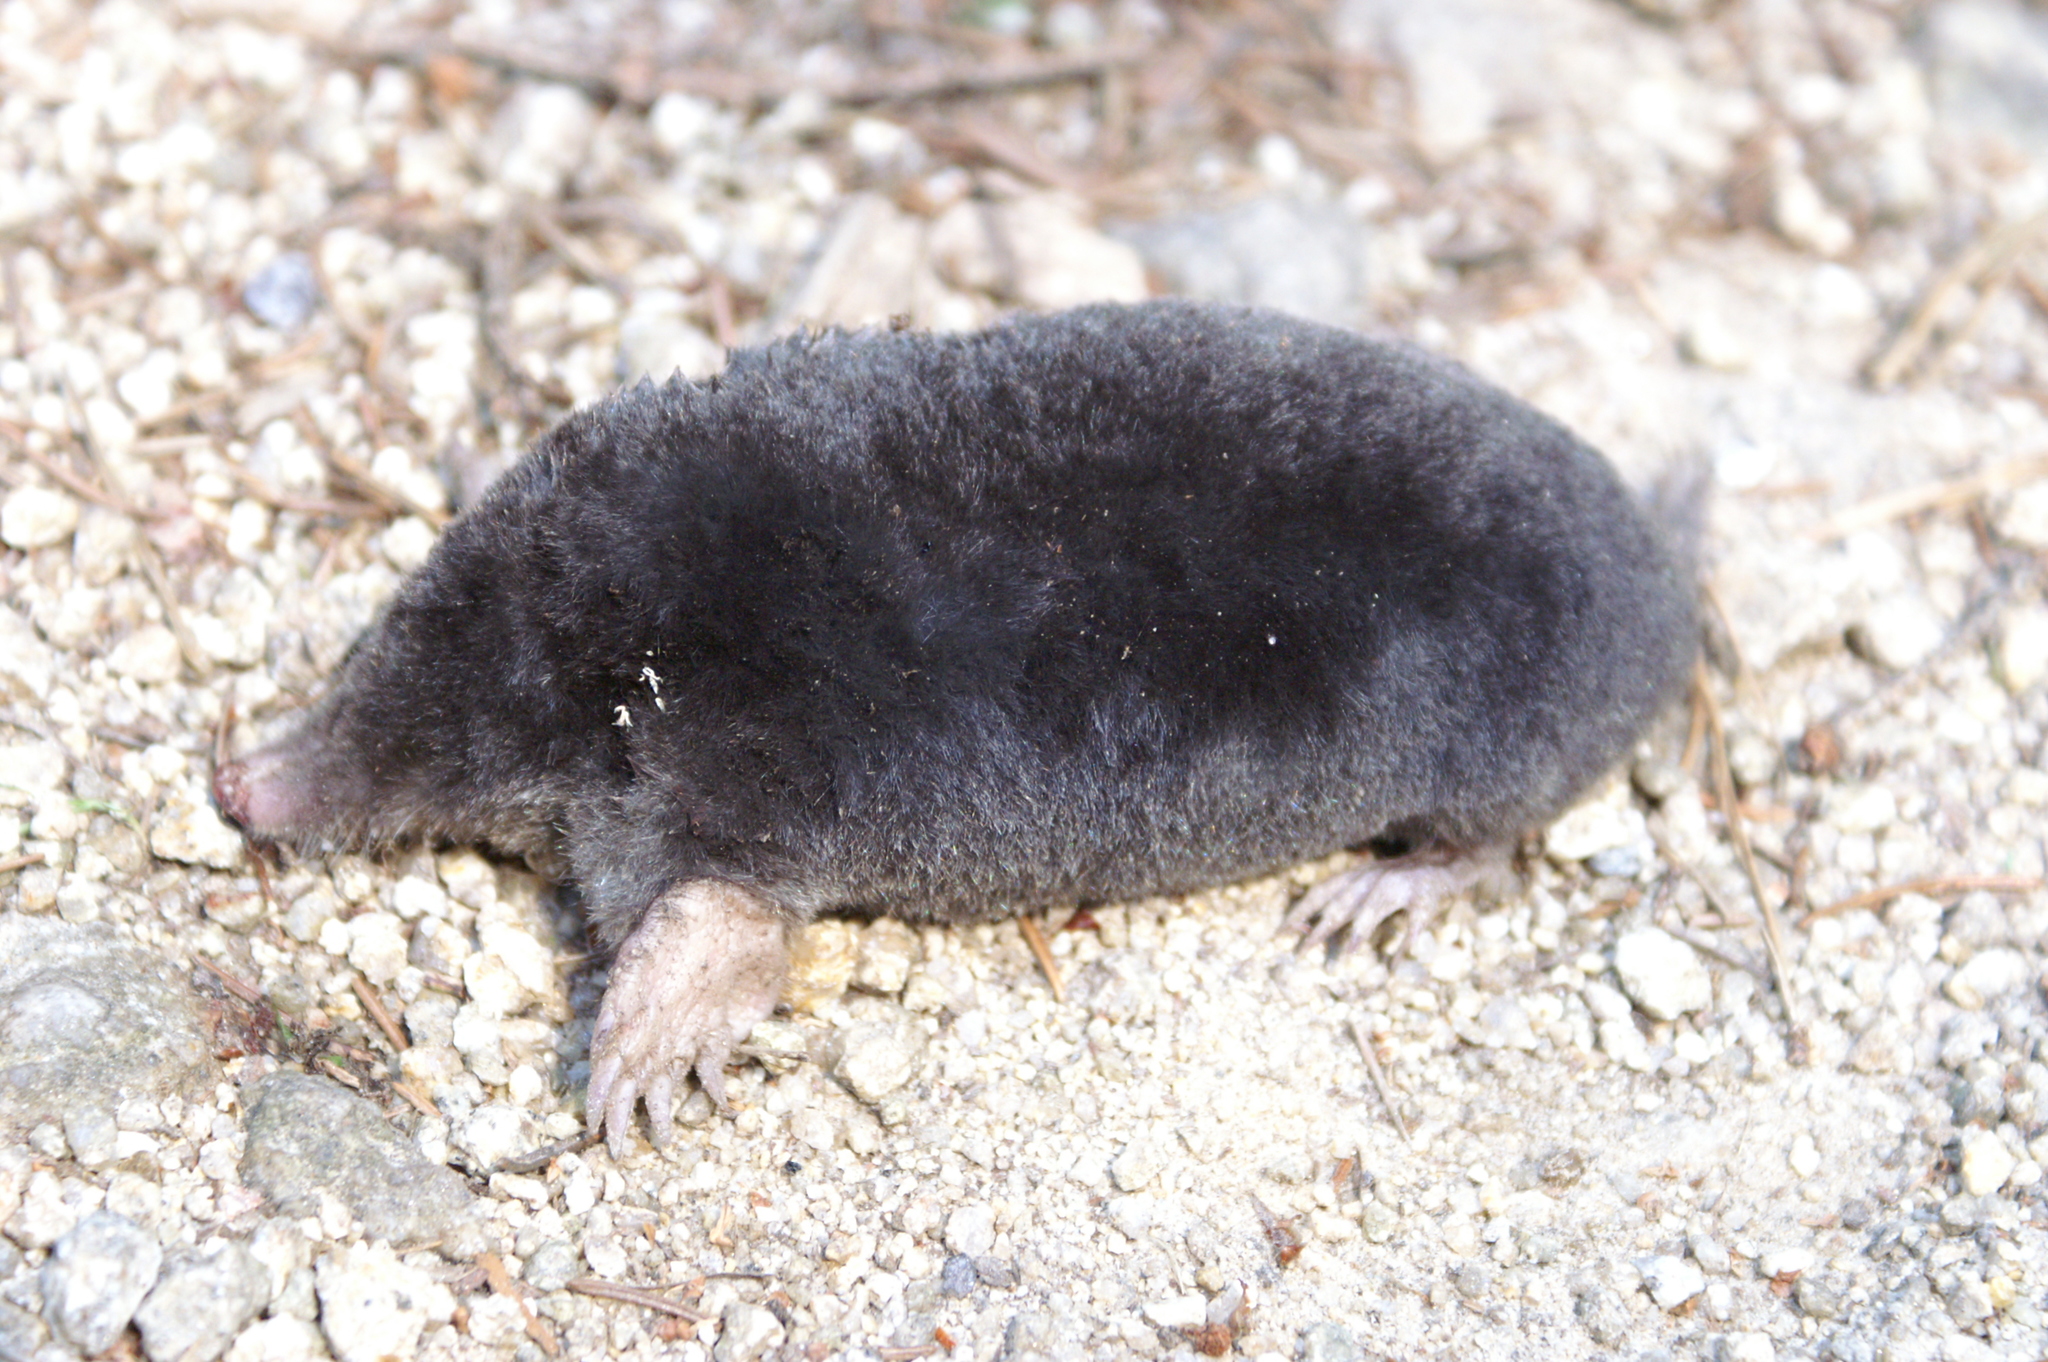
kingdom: Animalia
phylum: Chordata
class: Mammalia
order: Soricomorpha
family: Talpidae
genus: Talpa
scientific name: Talpa europaea
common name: European mole
